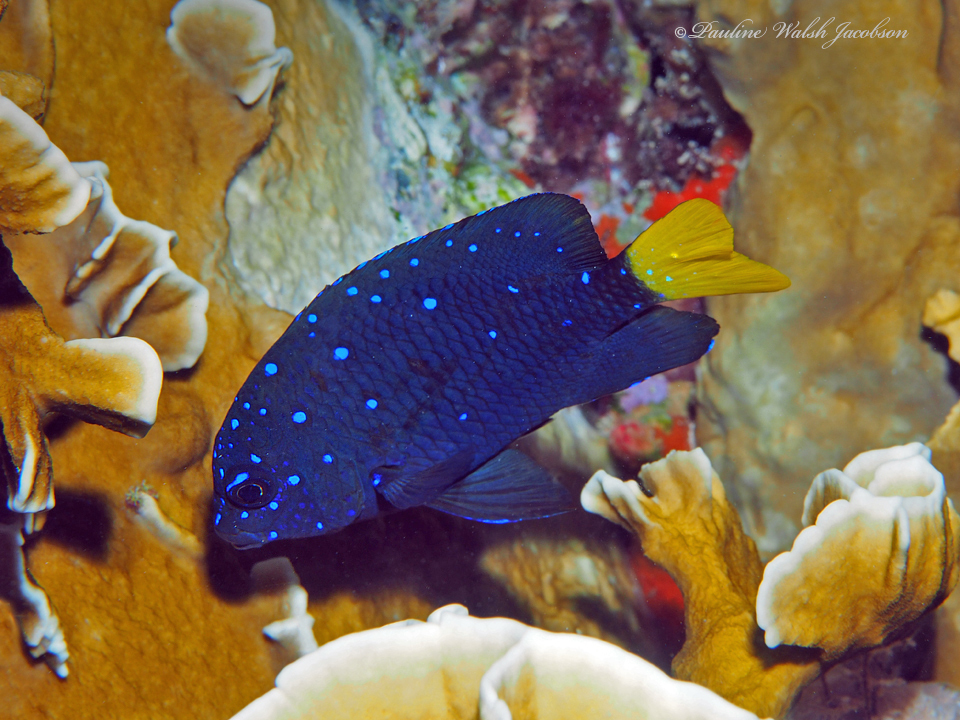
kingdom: Animalia
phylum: Chordata
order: Perciformes
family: Pomacentridae
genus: Microspathodon
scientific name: Microspathodon chrysurus
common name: Yellowtail damselfish
